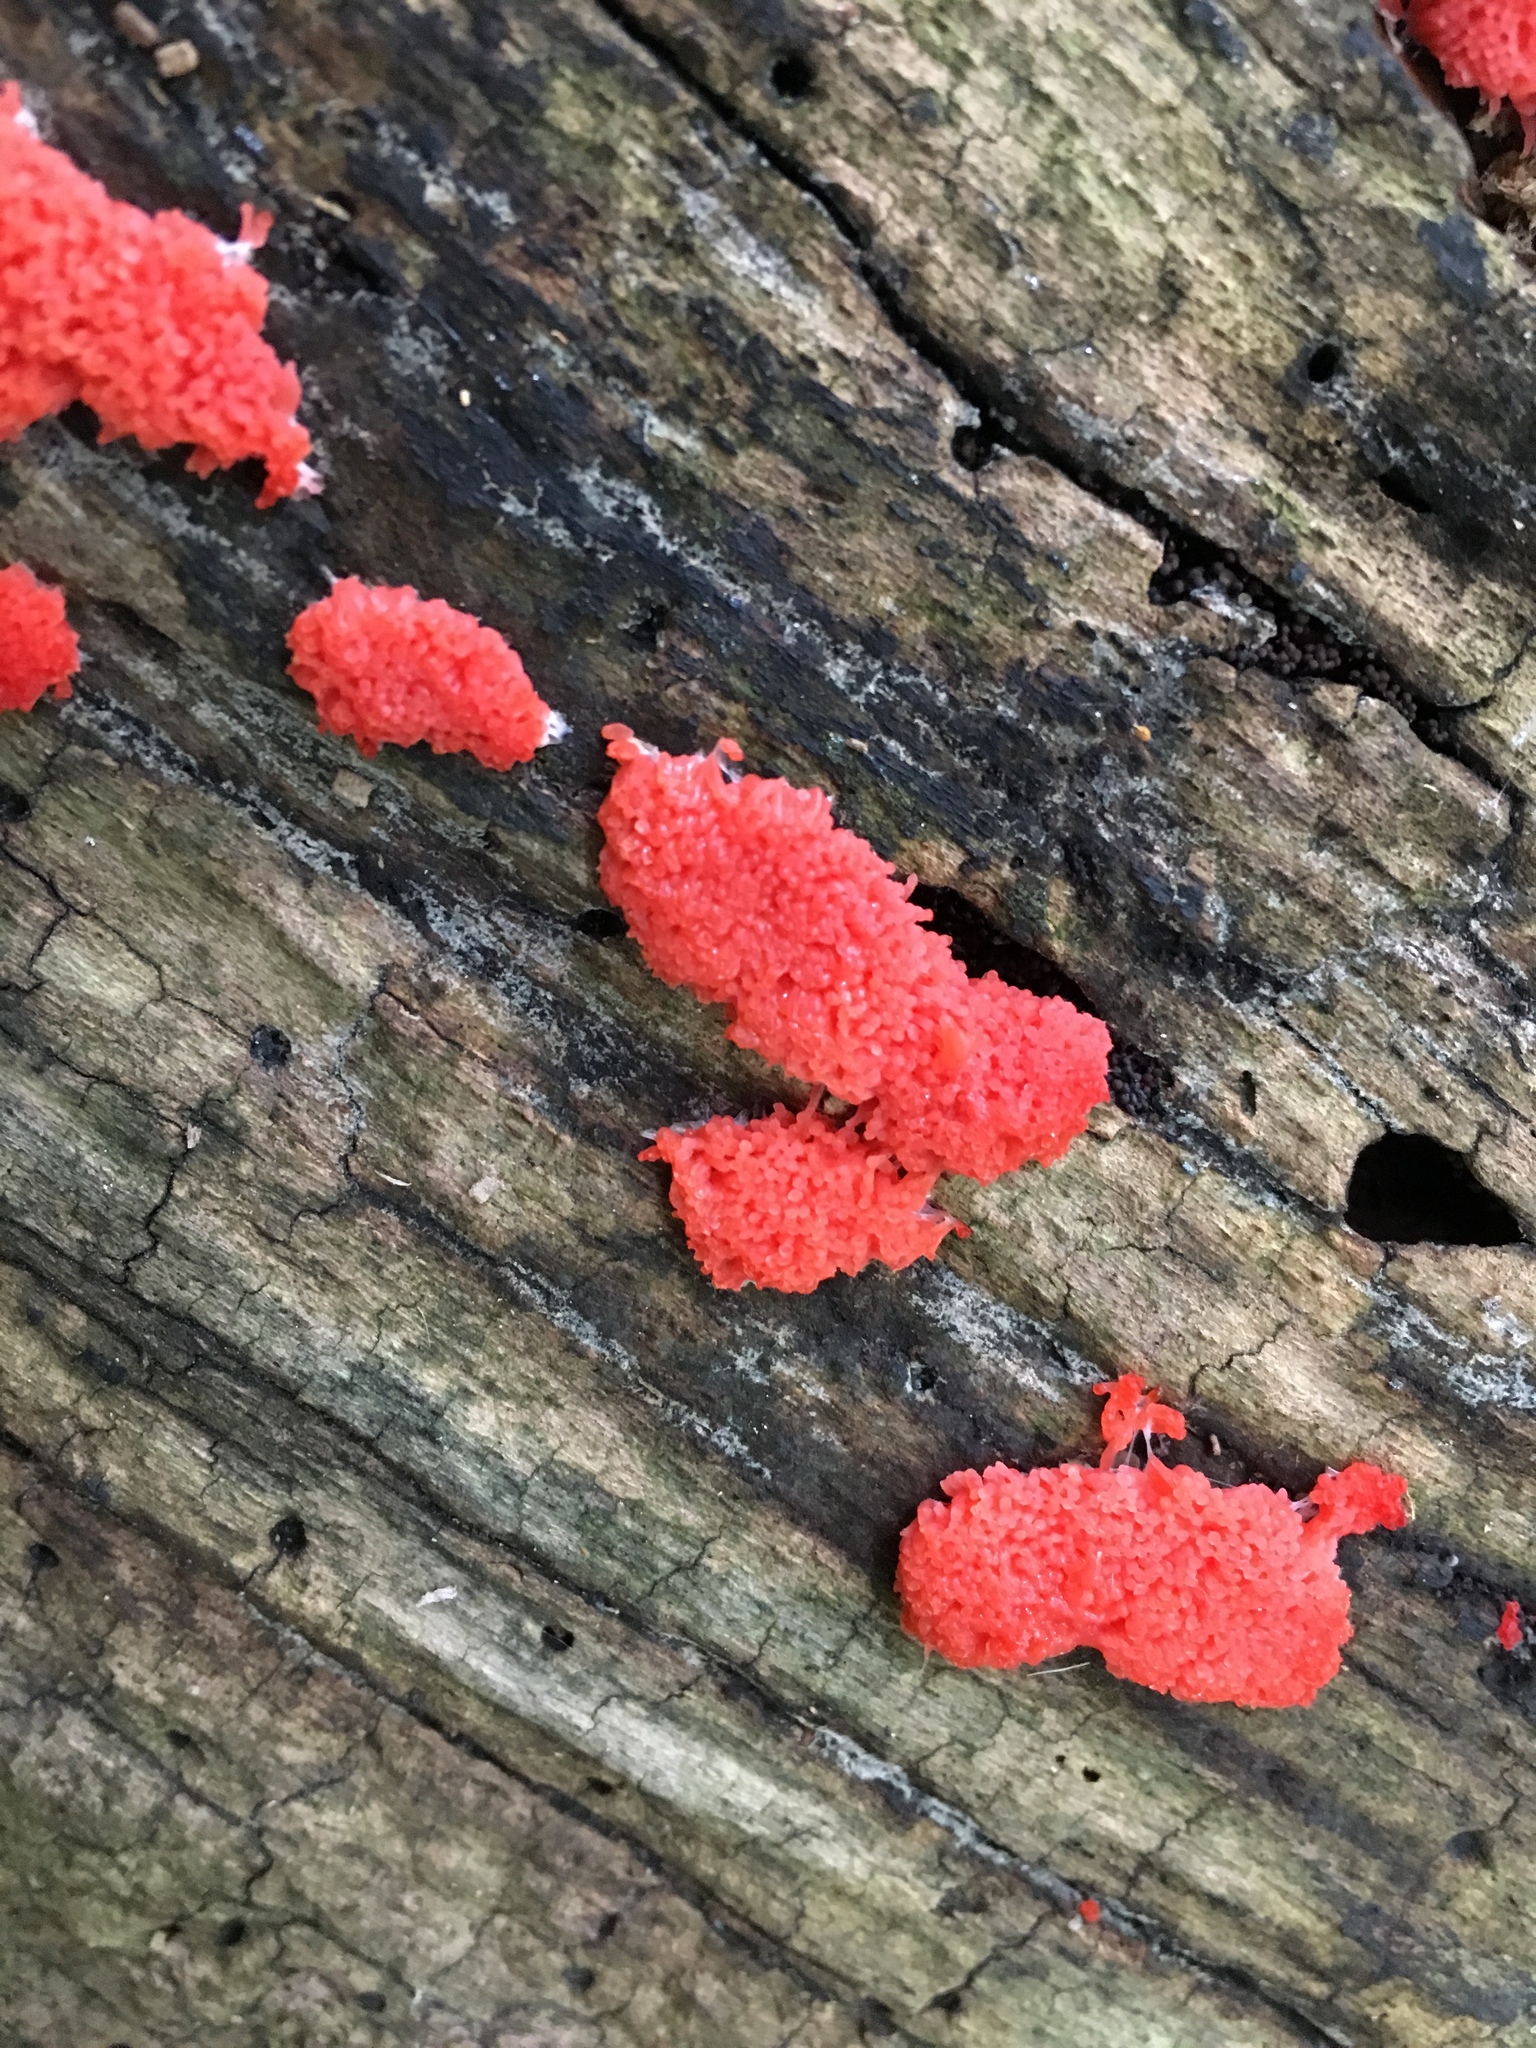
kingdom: Protozoa
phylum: Mycetozoa
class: Myxomycetes
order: Cribrariales
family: Tubiferaceae
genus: Tubifera
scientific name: Tubifera ferruginosa
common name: Red raspberry slime mold
